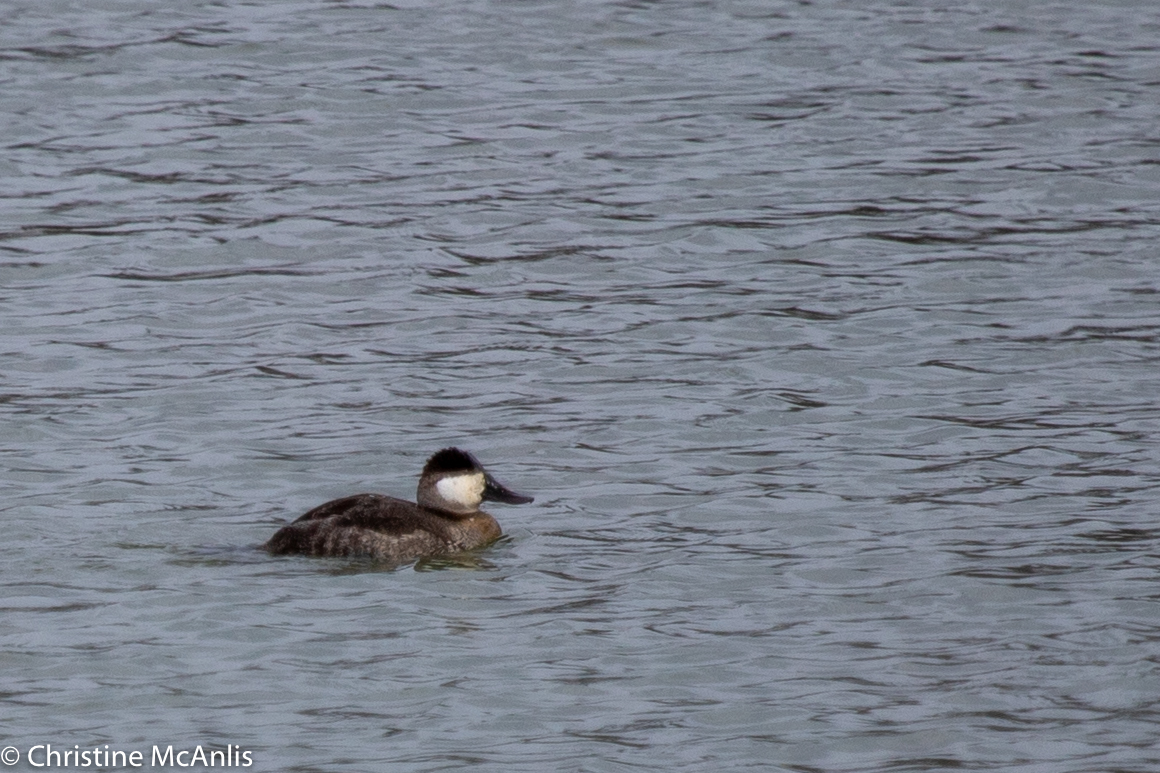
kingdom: Animalia
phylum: Chordata
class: Aves
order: Anseriformes
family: Anatidae
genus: Oxyura
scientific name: Oxyura jamaicensis
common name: Ruddy duck
